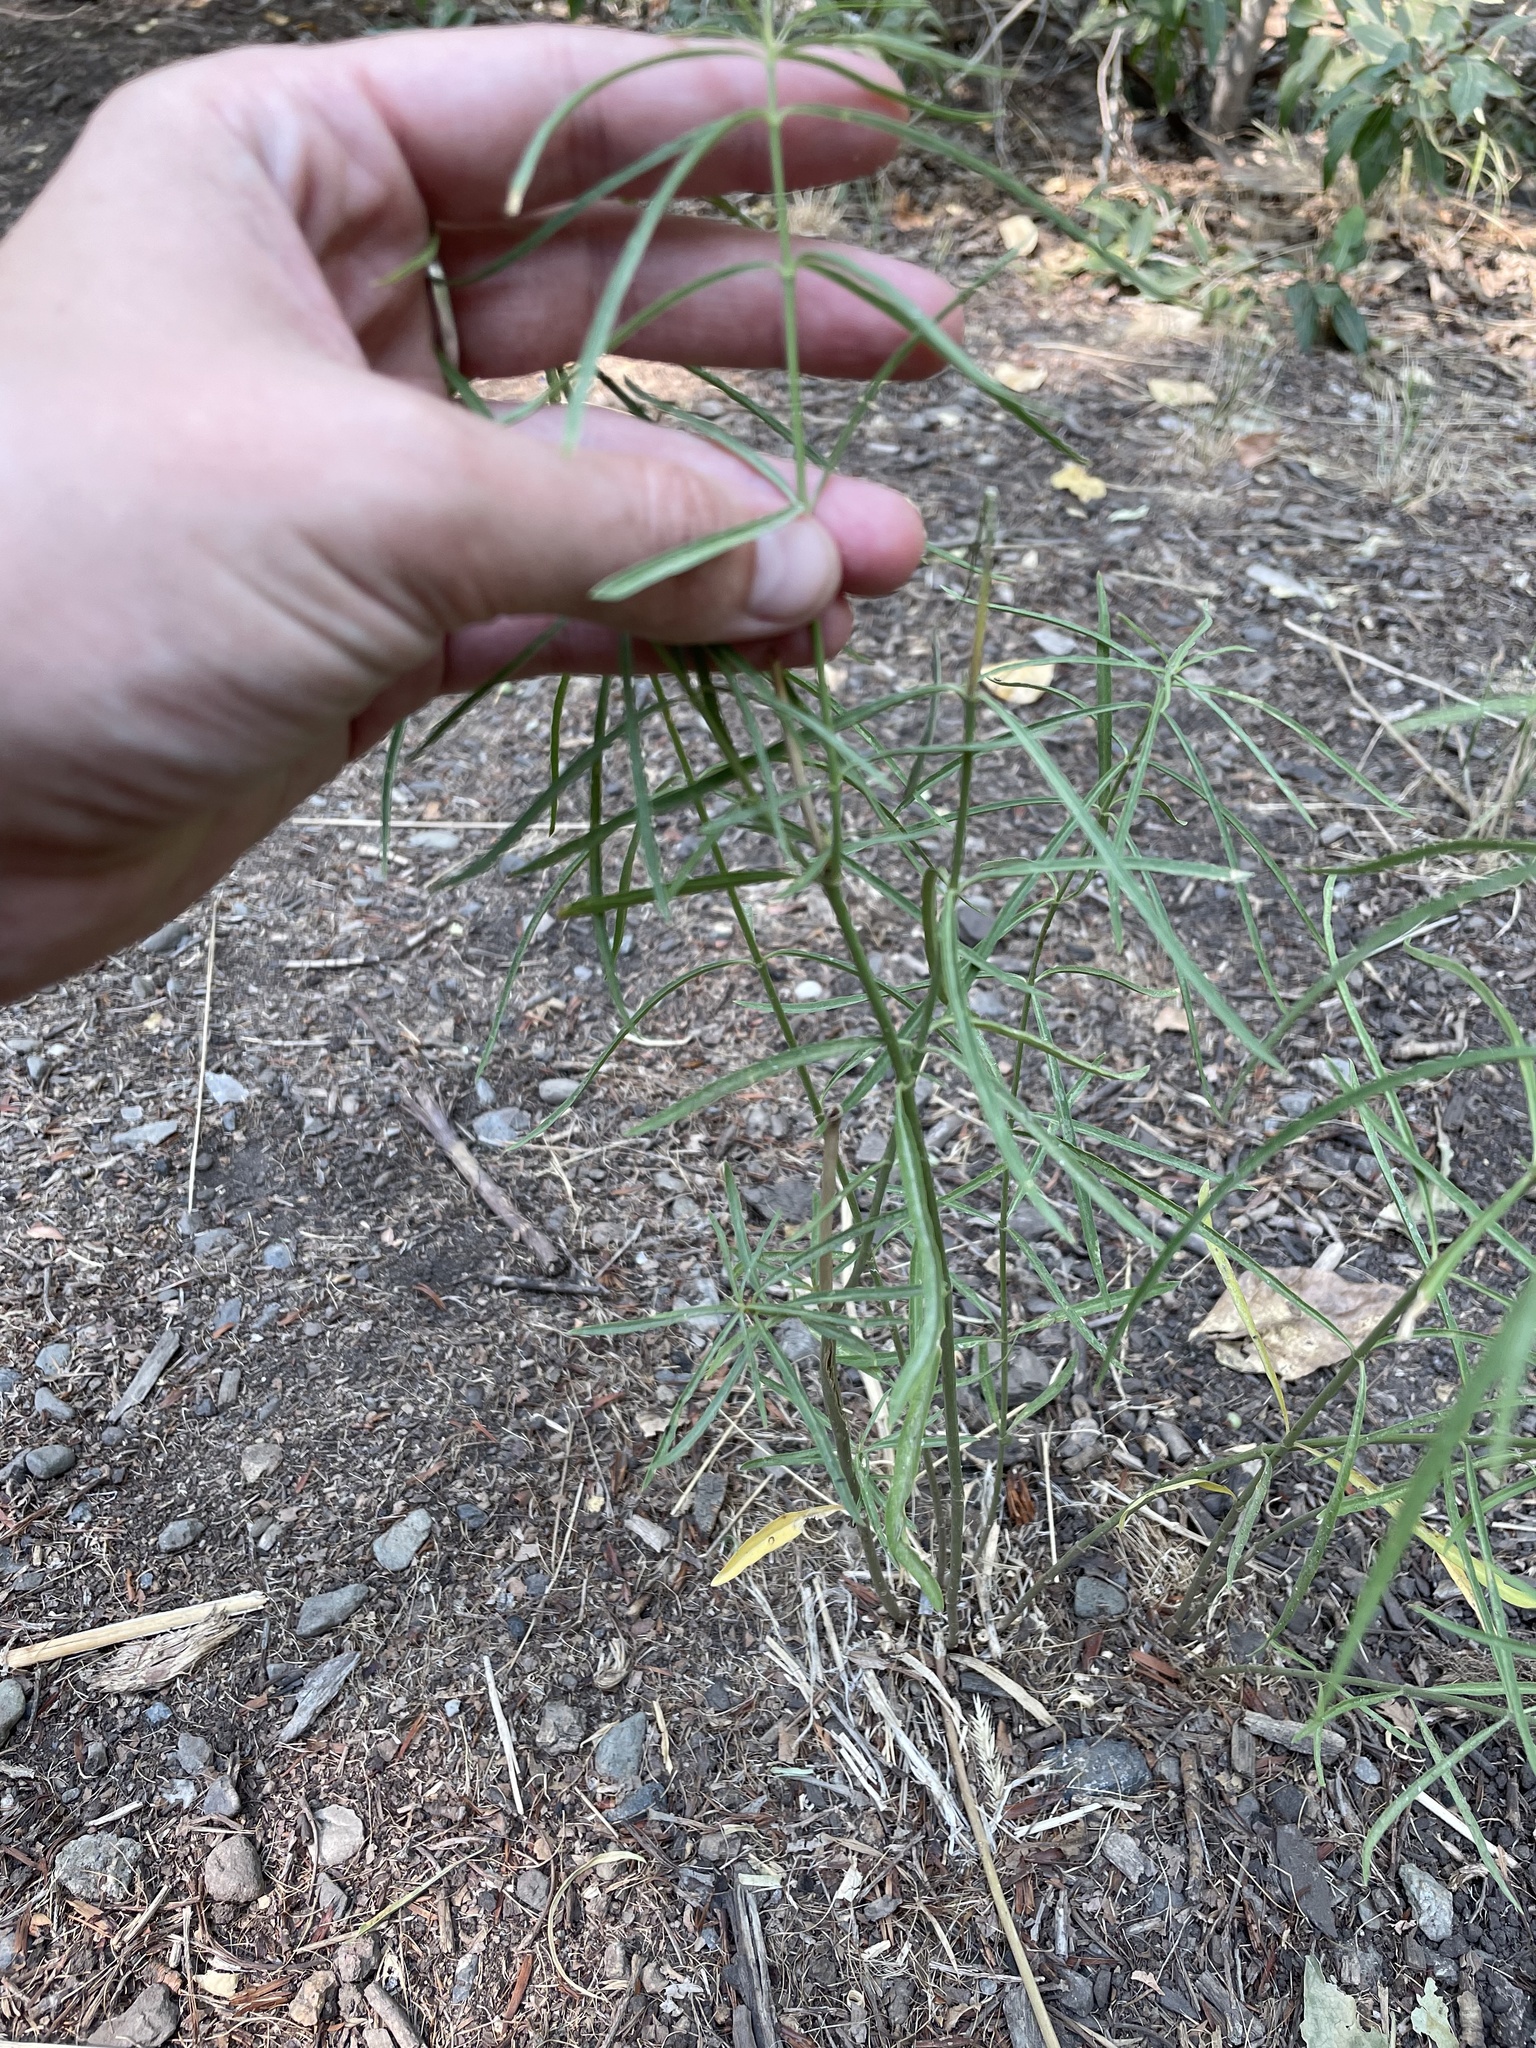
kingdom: Plantae
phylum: Tracheophyta
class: Magnoliopsida
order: Gentianales
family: Apocynaceae
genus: Asclepias
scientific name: Asclepias fascicularis
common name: Mexican milkweed
